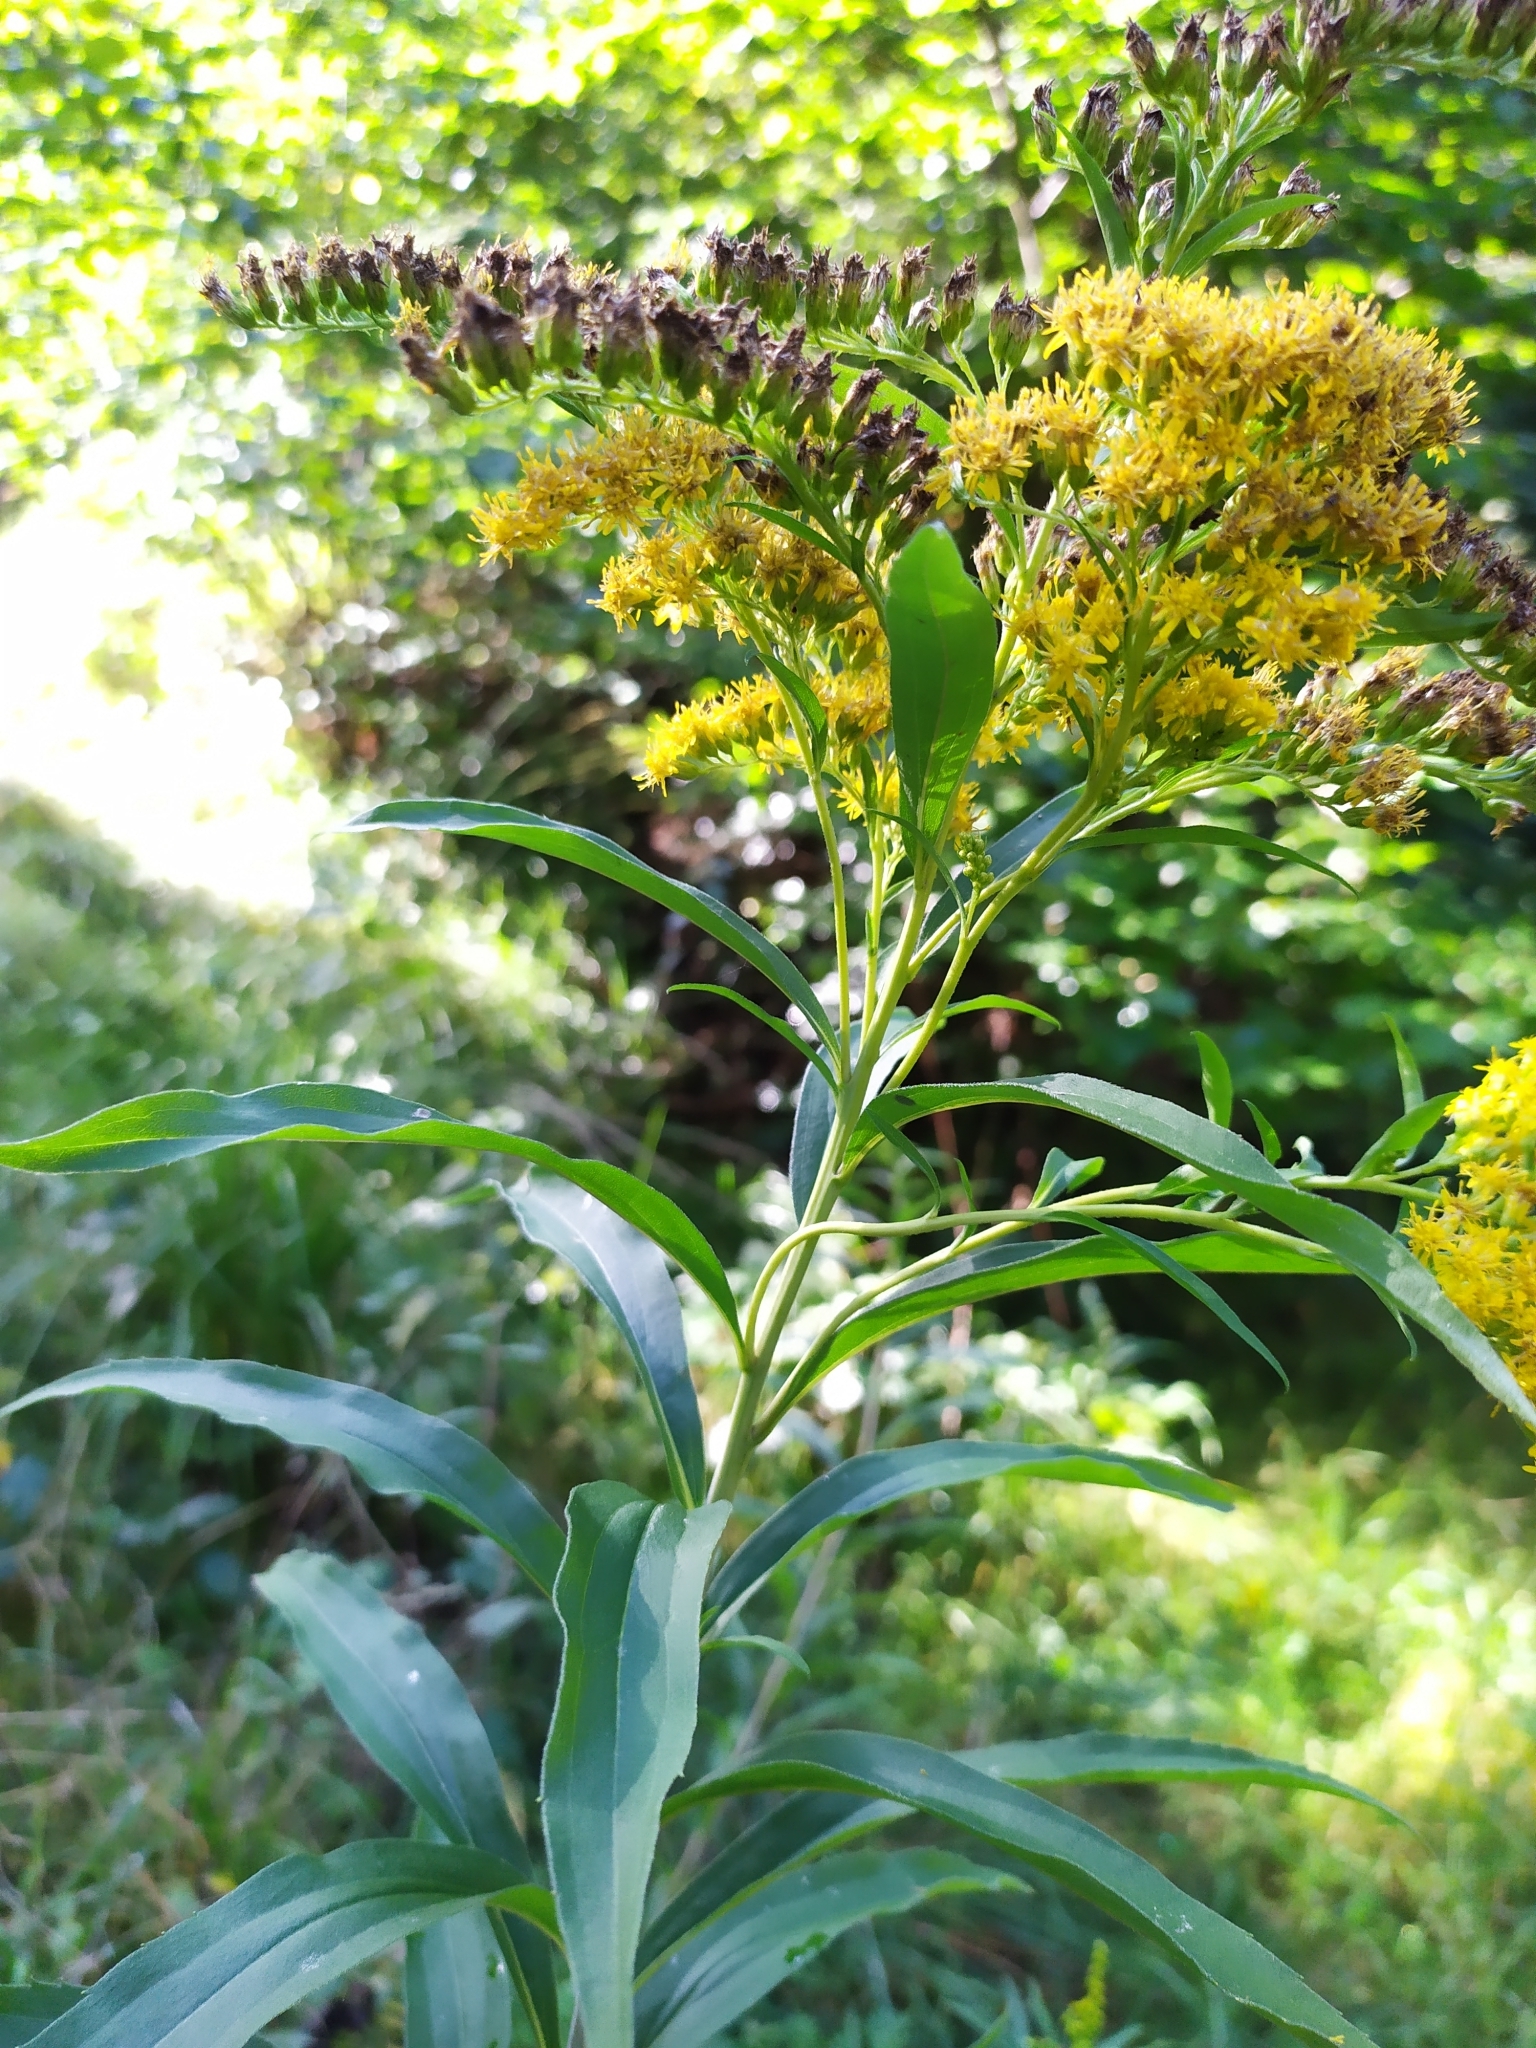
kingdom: Plantae
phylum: Tracheophyta
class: Magnoliopsida
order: Asterales
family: Asteraceae
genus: Solidago
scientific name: Solidago gigantea
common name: Giant goldenrod
